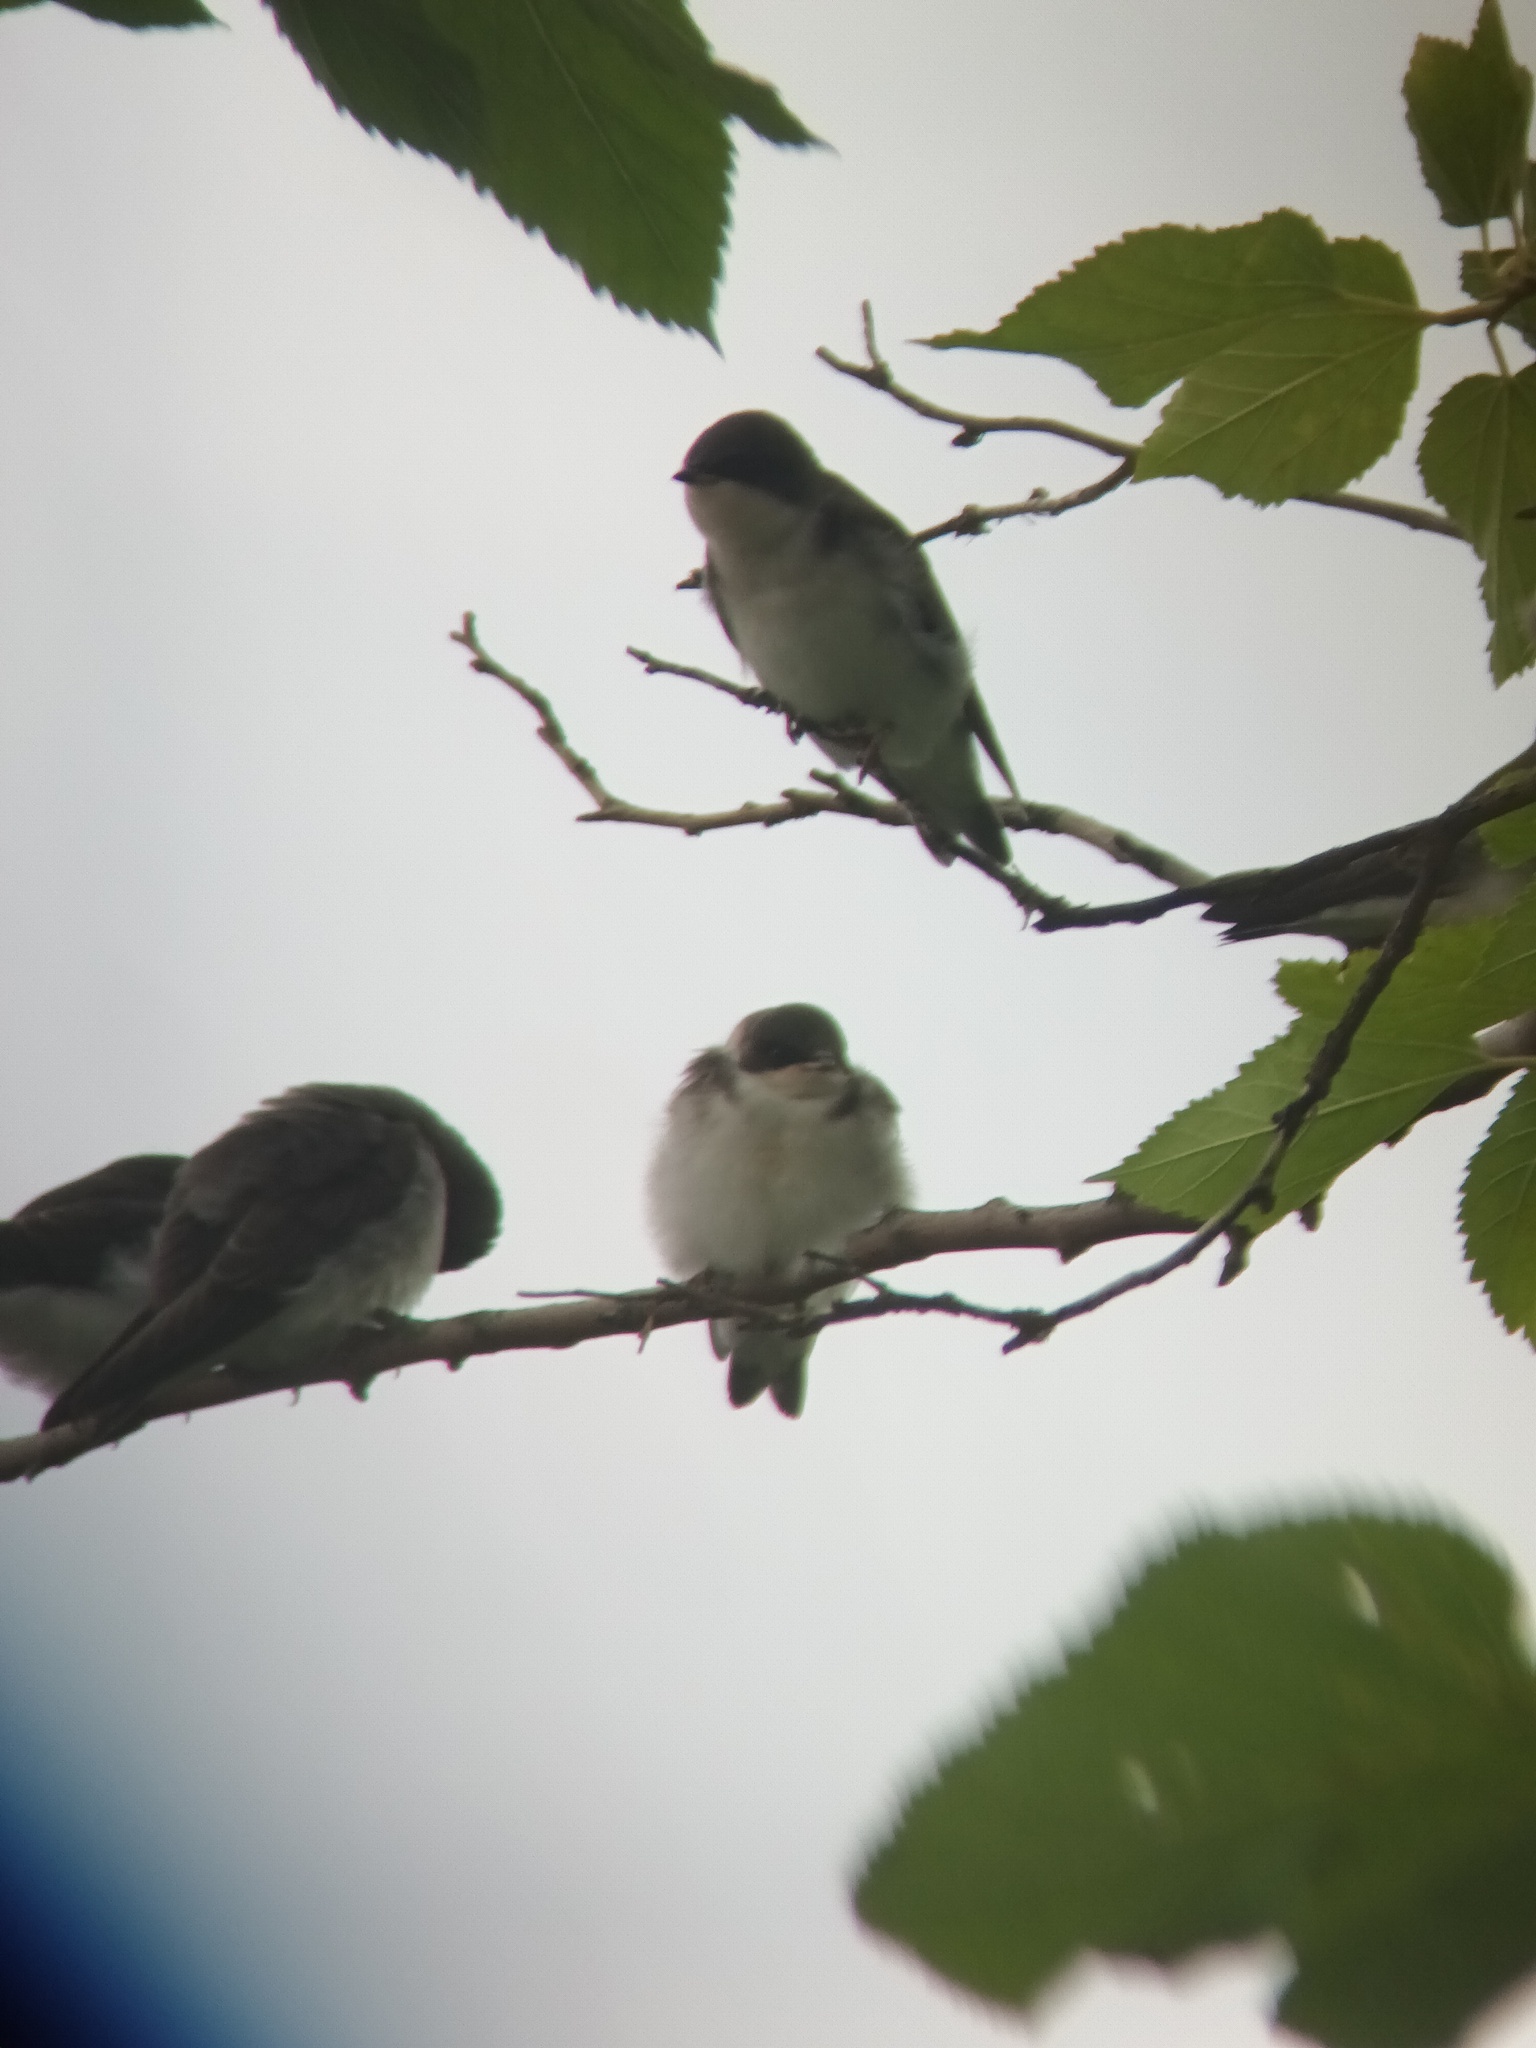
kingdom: Animalia
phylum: Chordata
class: Aves
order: Passeriformes
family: Hirundinidae
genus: Tachycineta
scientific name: Tachycineta bicolor
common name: Tree swallow
